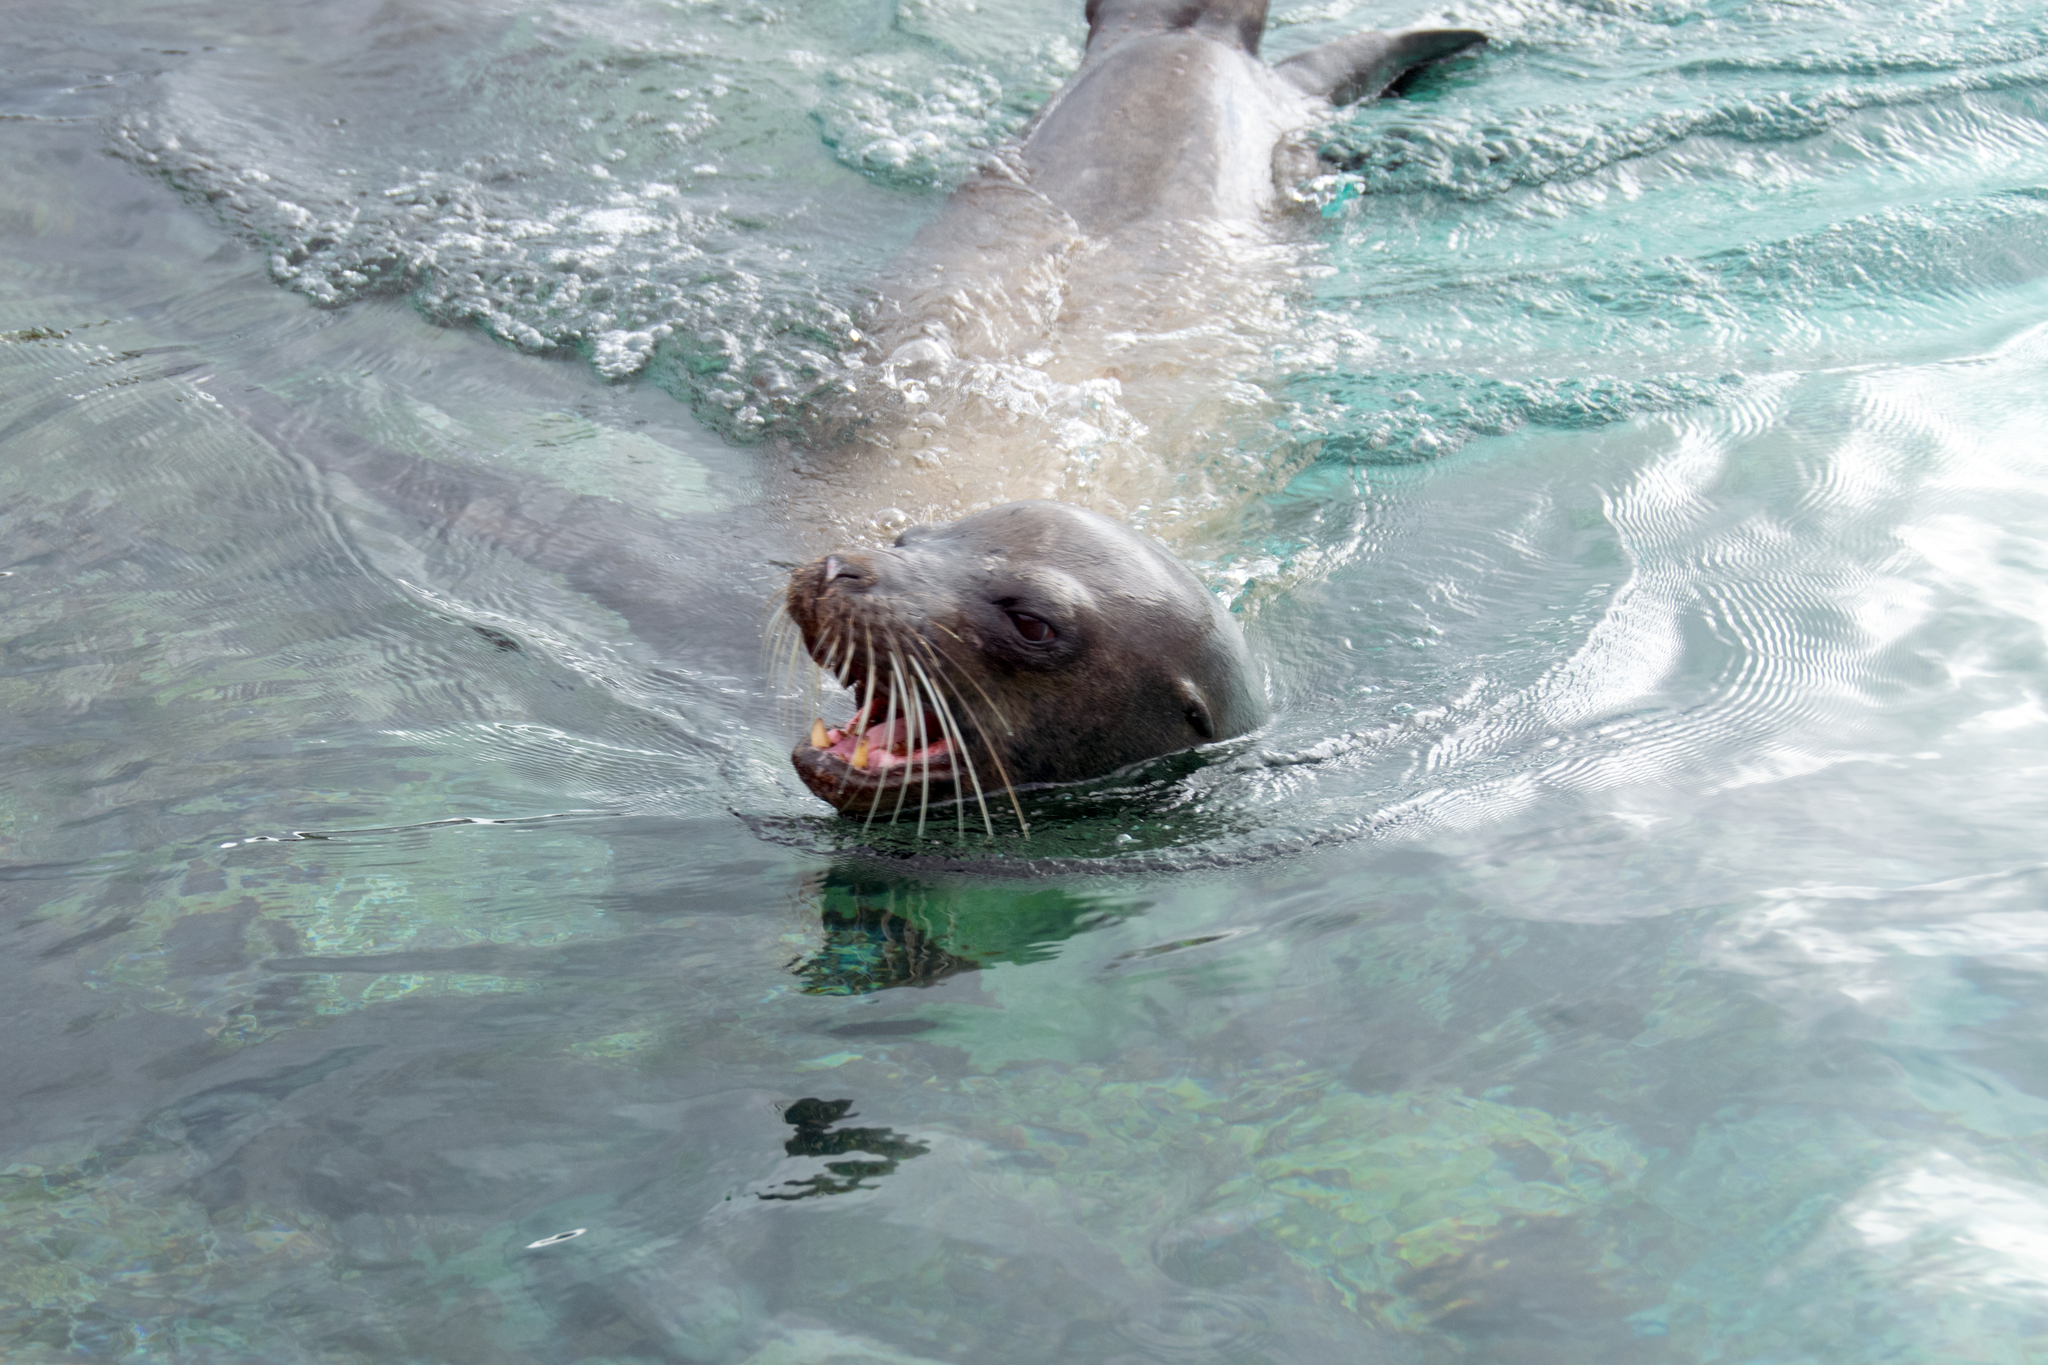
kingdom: Animalia
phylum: Chordata
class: Mammalia
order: Carnivora
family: Otariidae
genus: Zalophus
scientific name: Zalophus wollebaeki
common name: Galapagos sea lion
